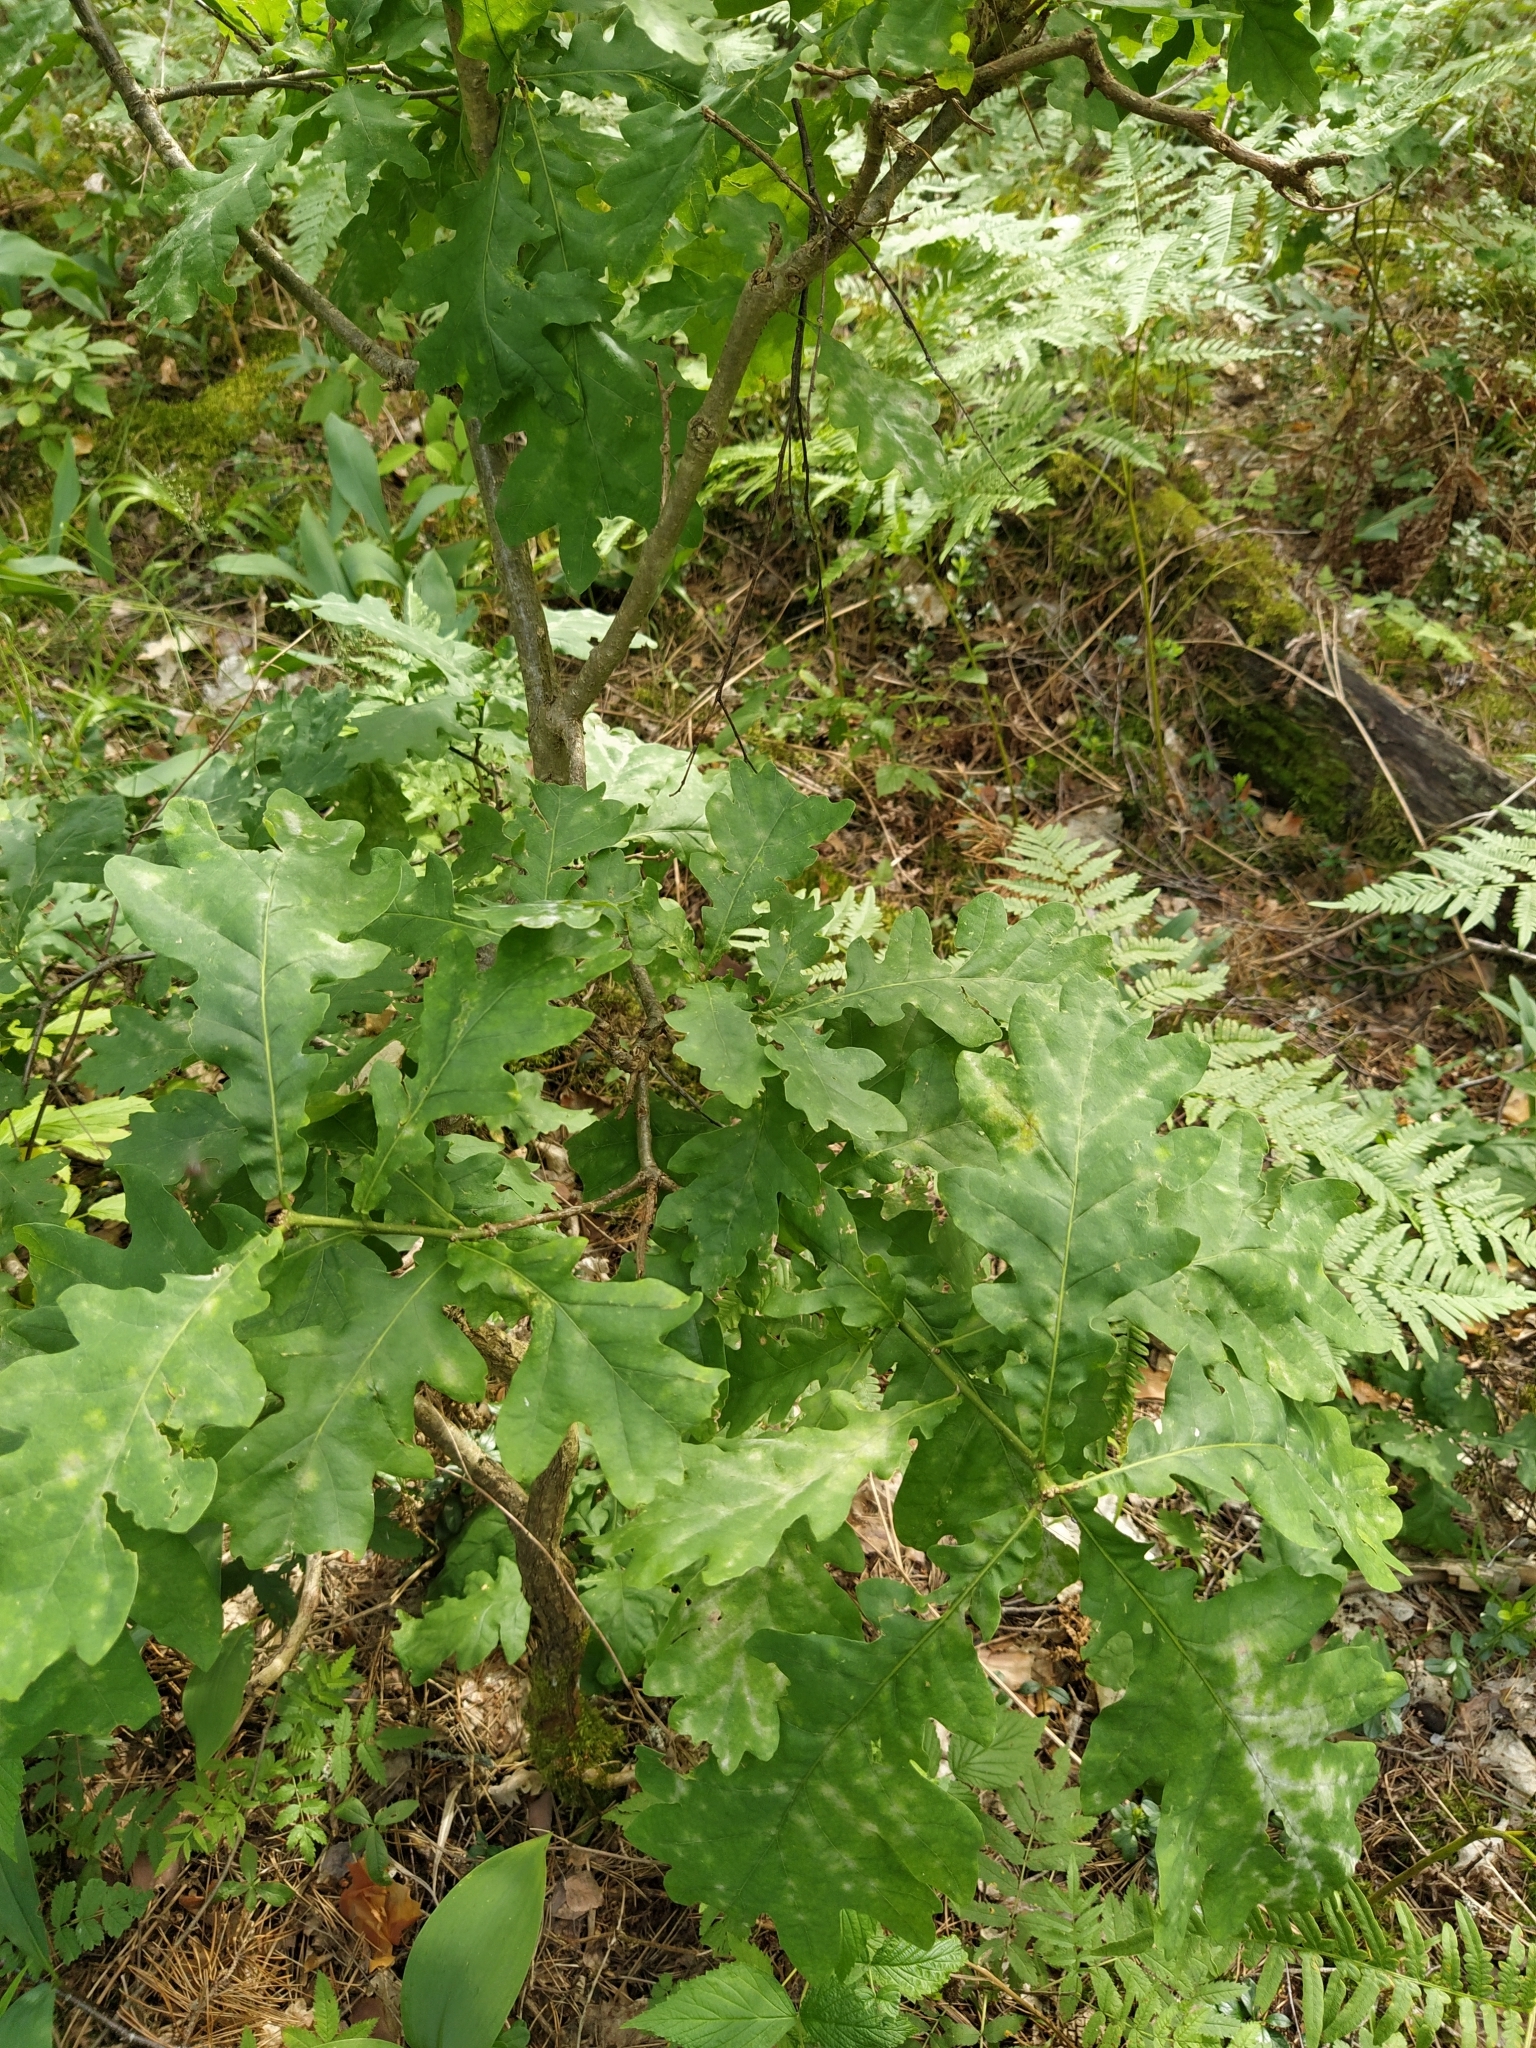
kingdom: Plantae
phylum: Tracheophyta
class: Magnoliopsida
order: Fagales
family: Fagaceae
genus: Quercus
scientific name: Quercus robur
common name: Pedunculate oak
